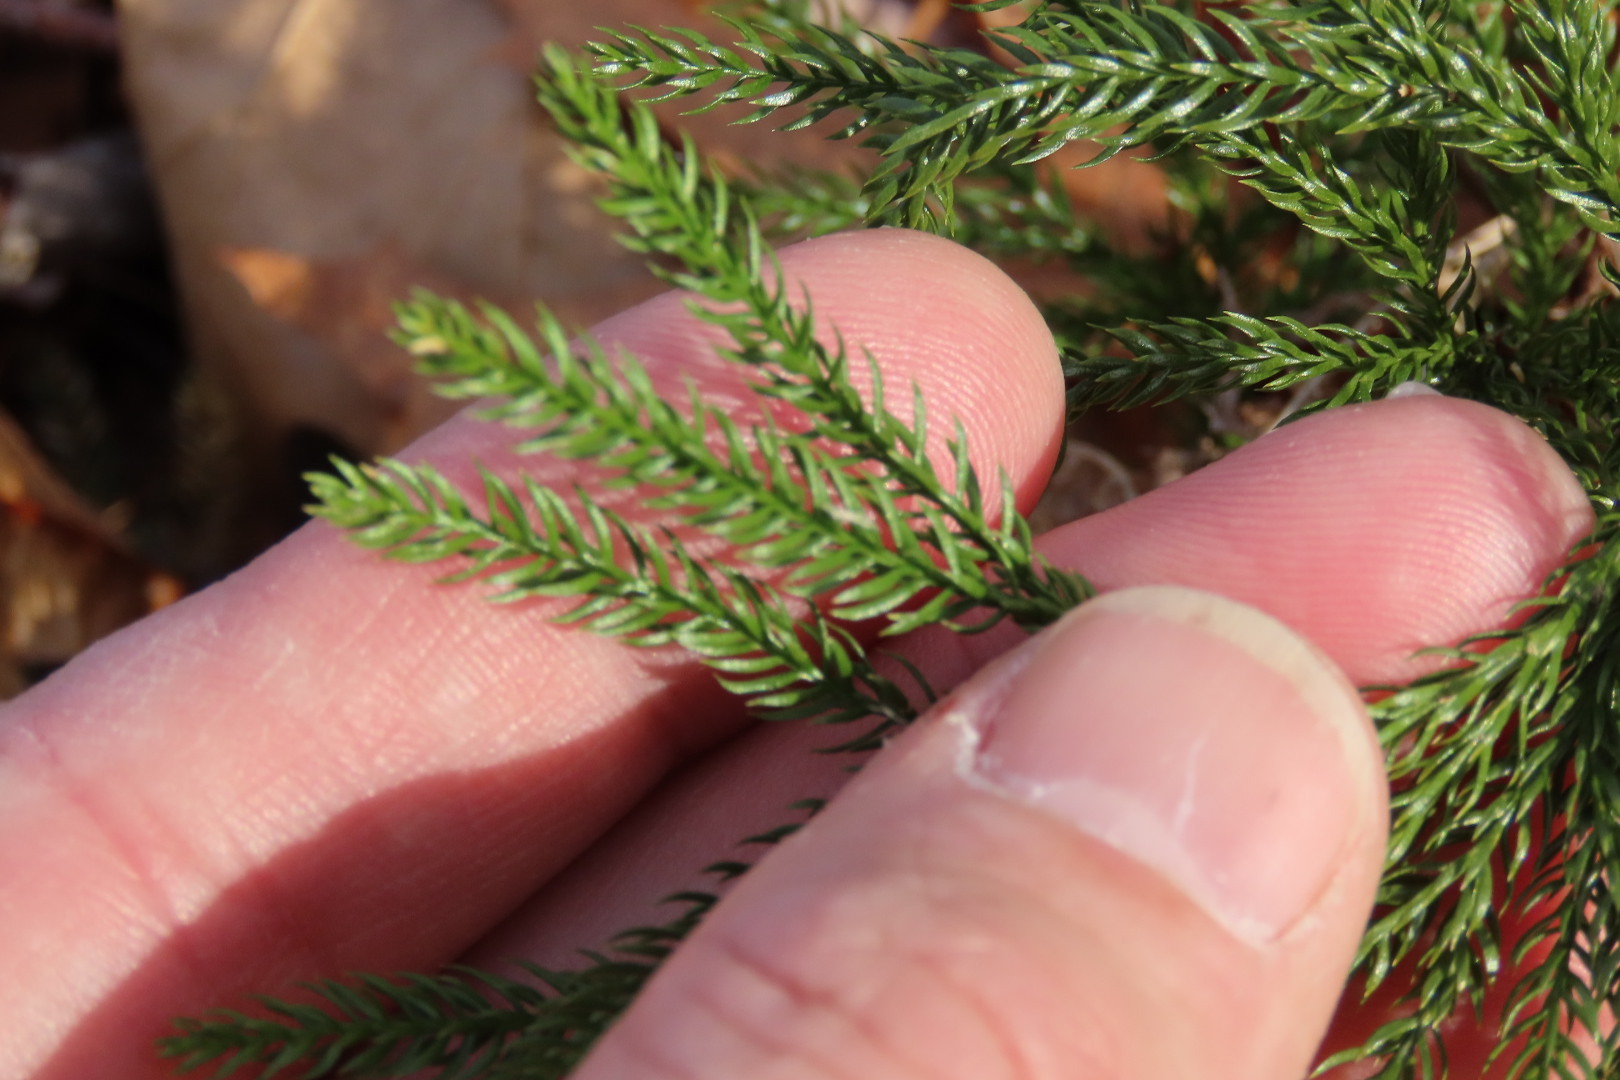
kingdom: Plantae
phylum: Tracheophyta
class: Lycopodiopsida
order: Lycopodiales
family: Lycopodiaceae
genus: Dendrolycopodium
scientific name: Dendrolycopodium obscurum
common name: Common ground-pine
